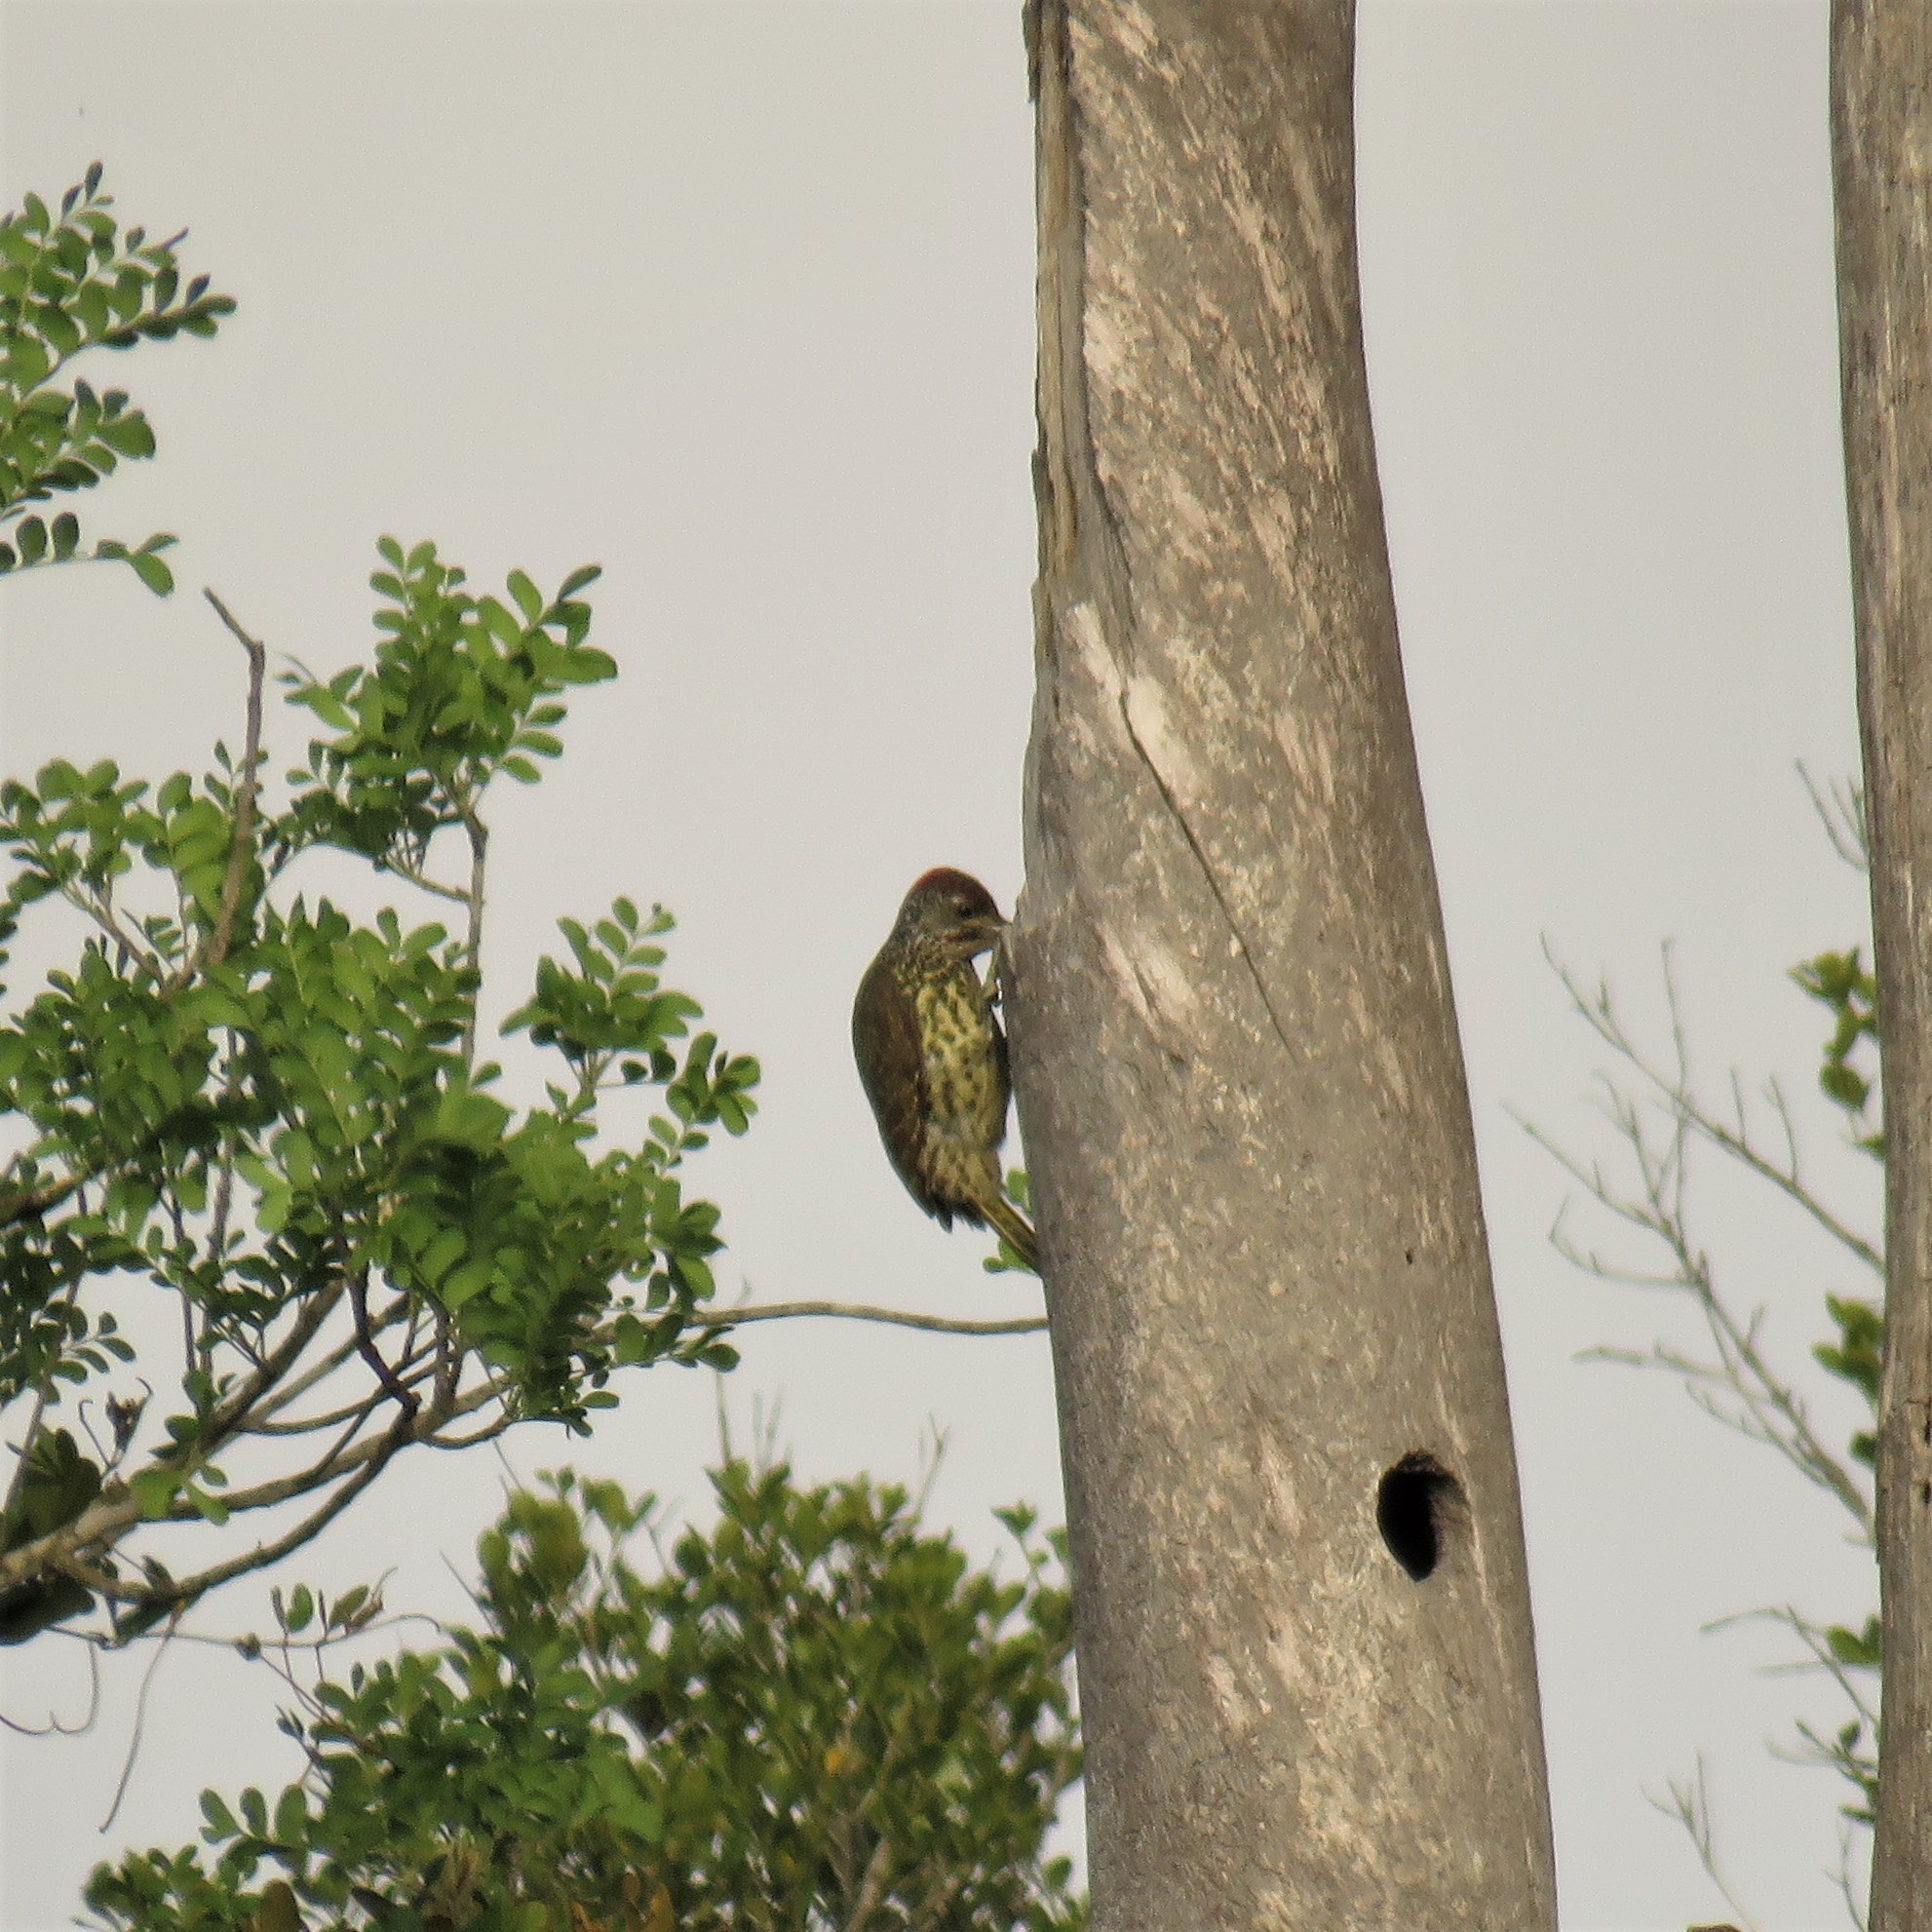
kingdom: Animalia
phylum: Chordata
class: Aves
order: Piciformes
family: Picidae
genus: Campethera
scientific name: Campethera notata
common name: Knysna woodpecker
